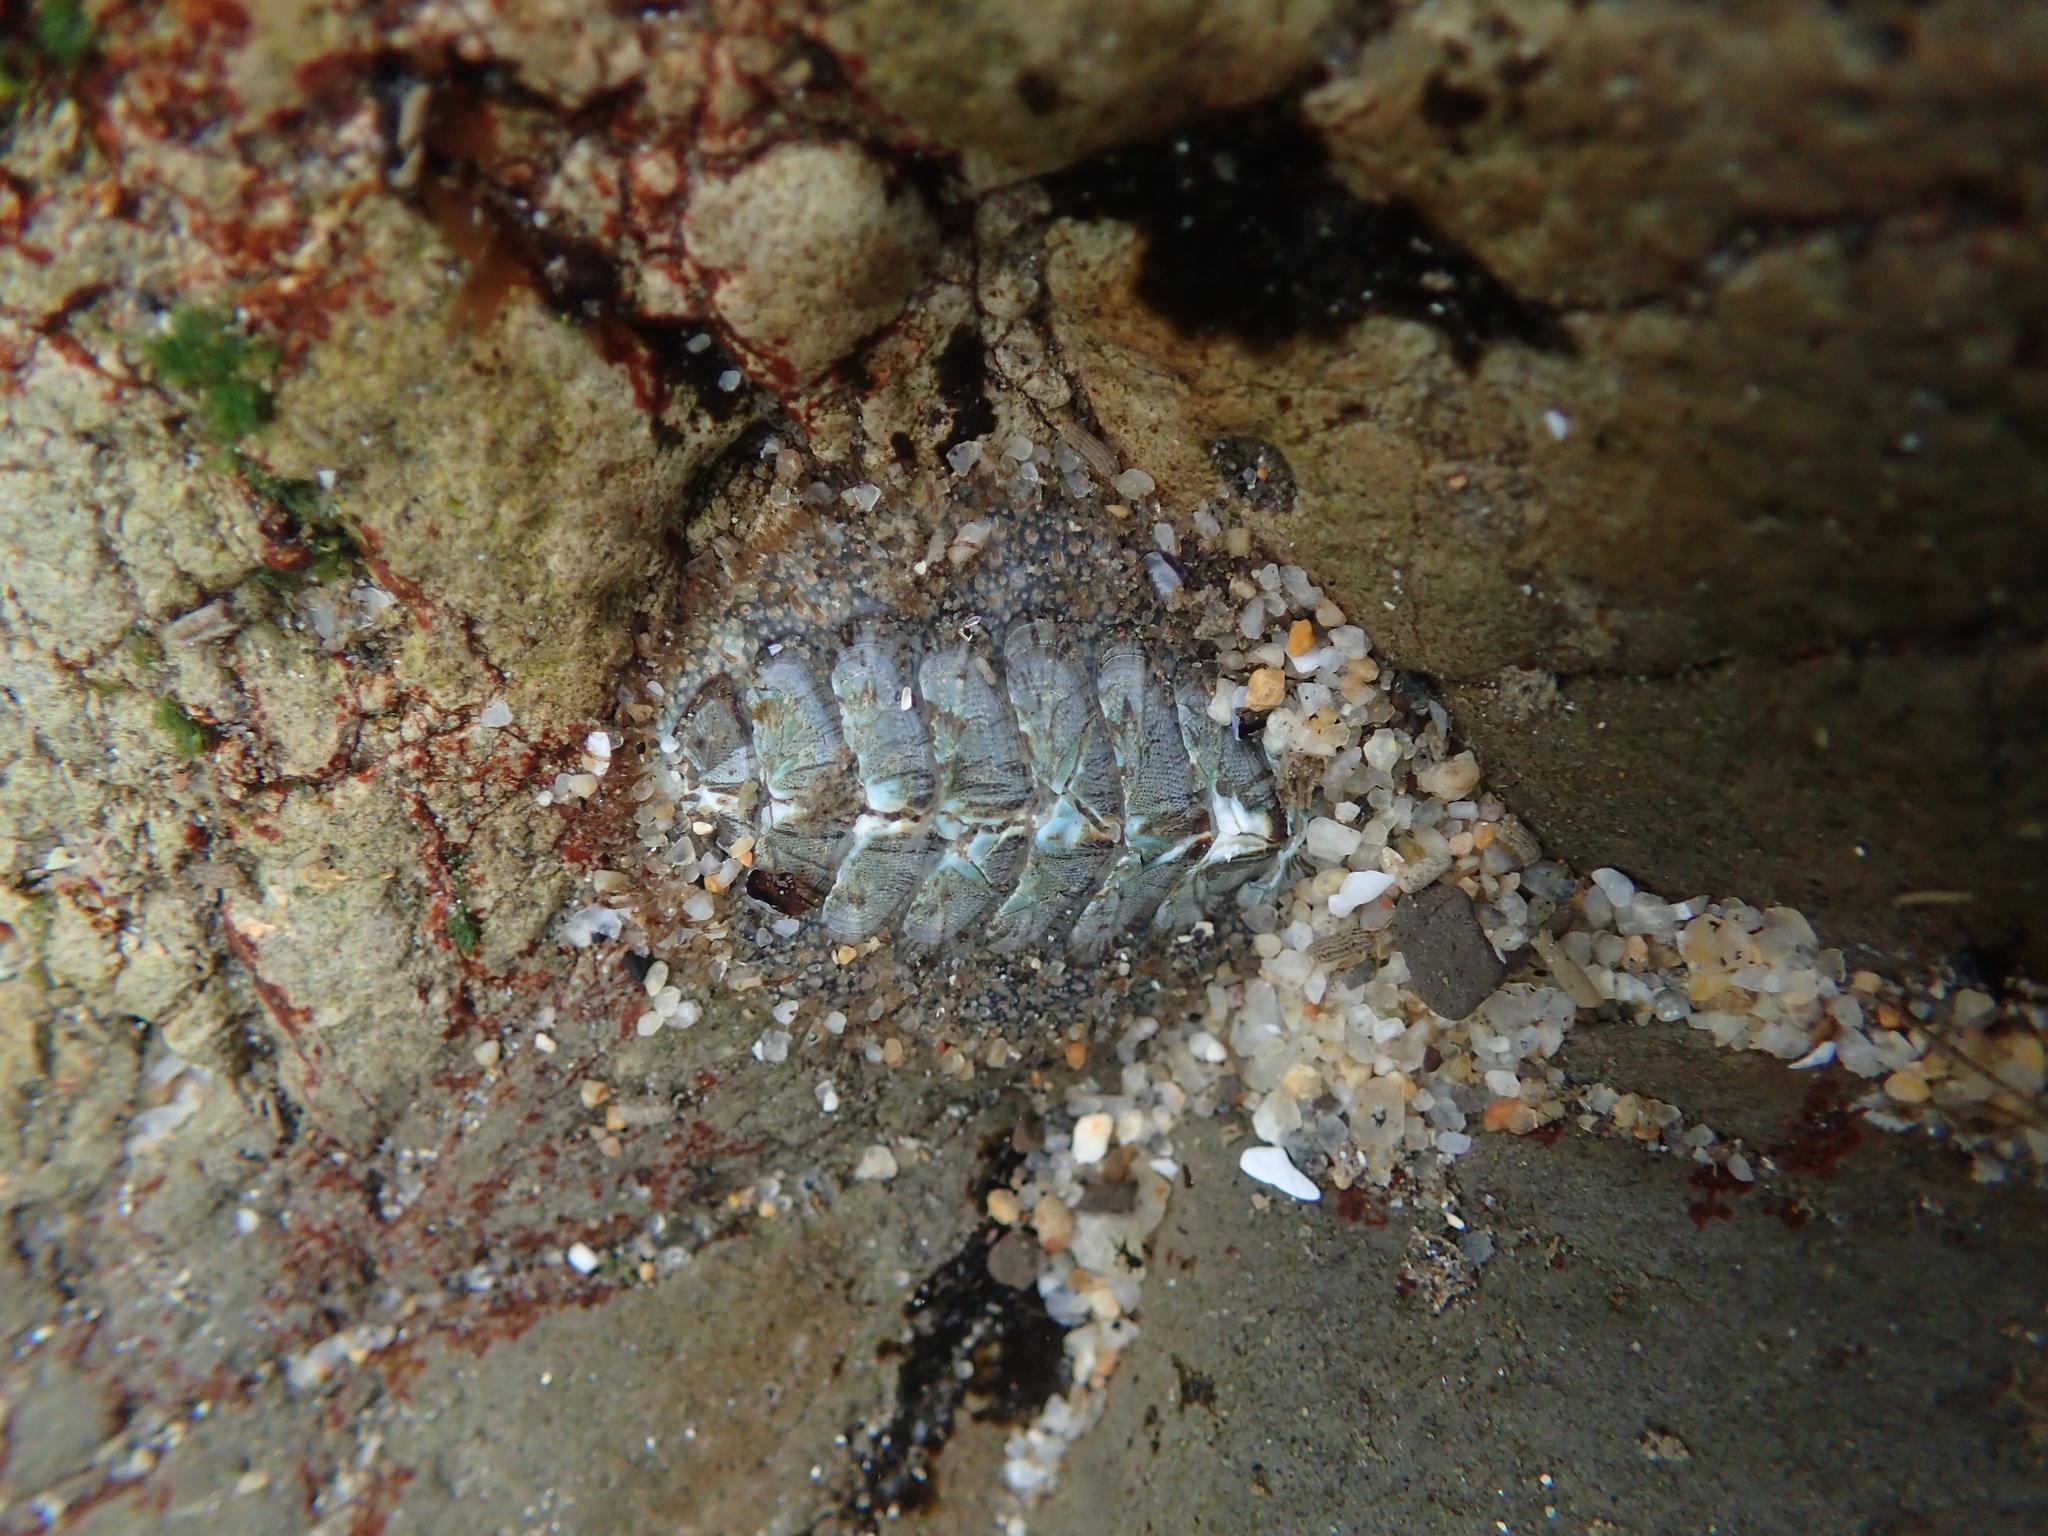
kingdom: Animalia
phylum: Mollusca
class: Polyplacophora
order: Chitonida
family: Mopaliidae
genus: Mopalia
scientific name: Mopalia lignosa
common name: Woody chiton
